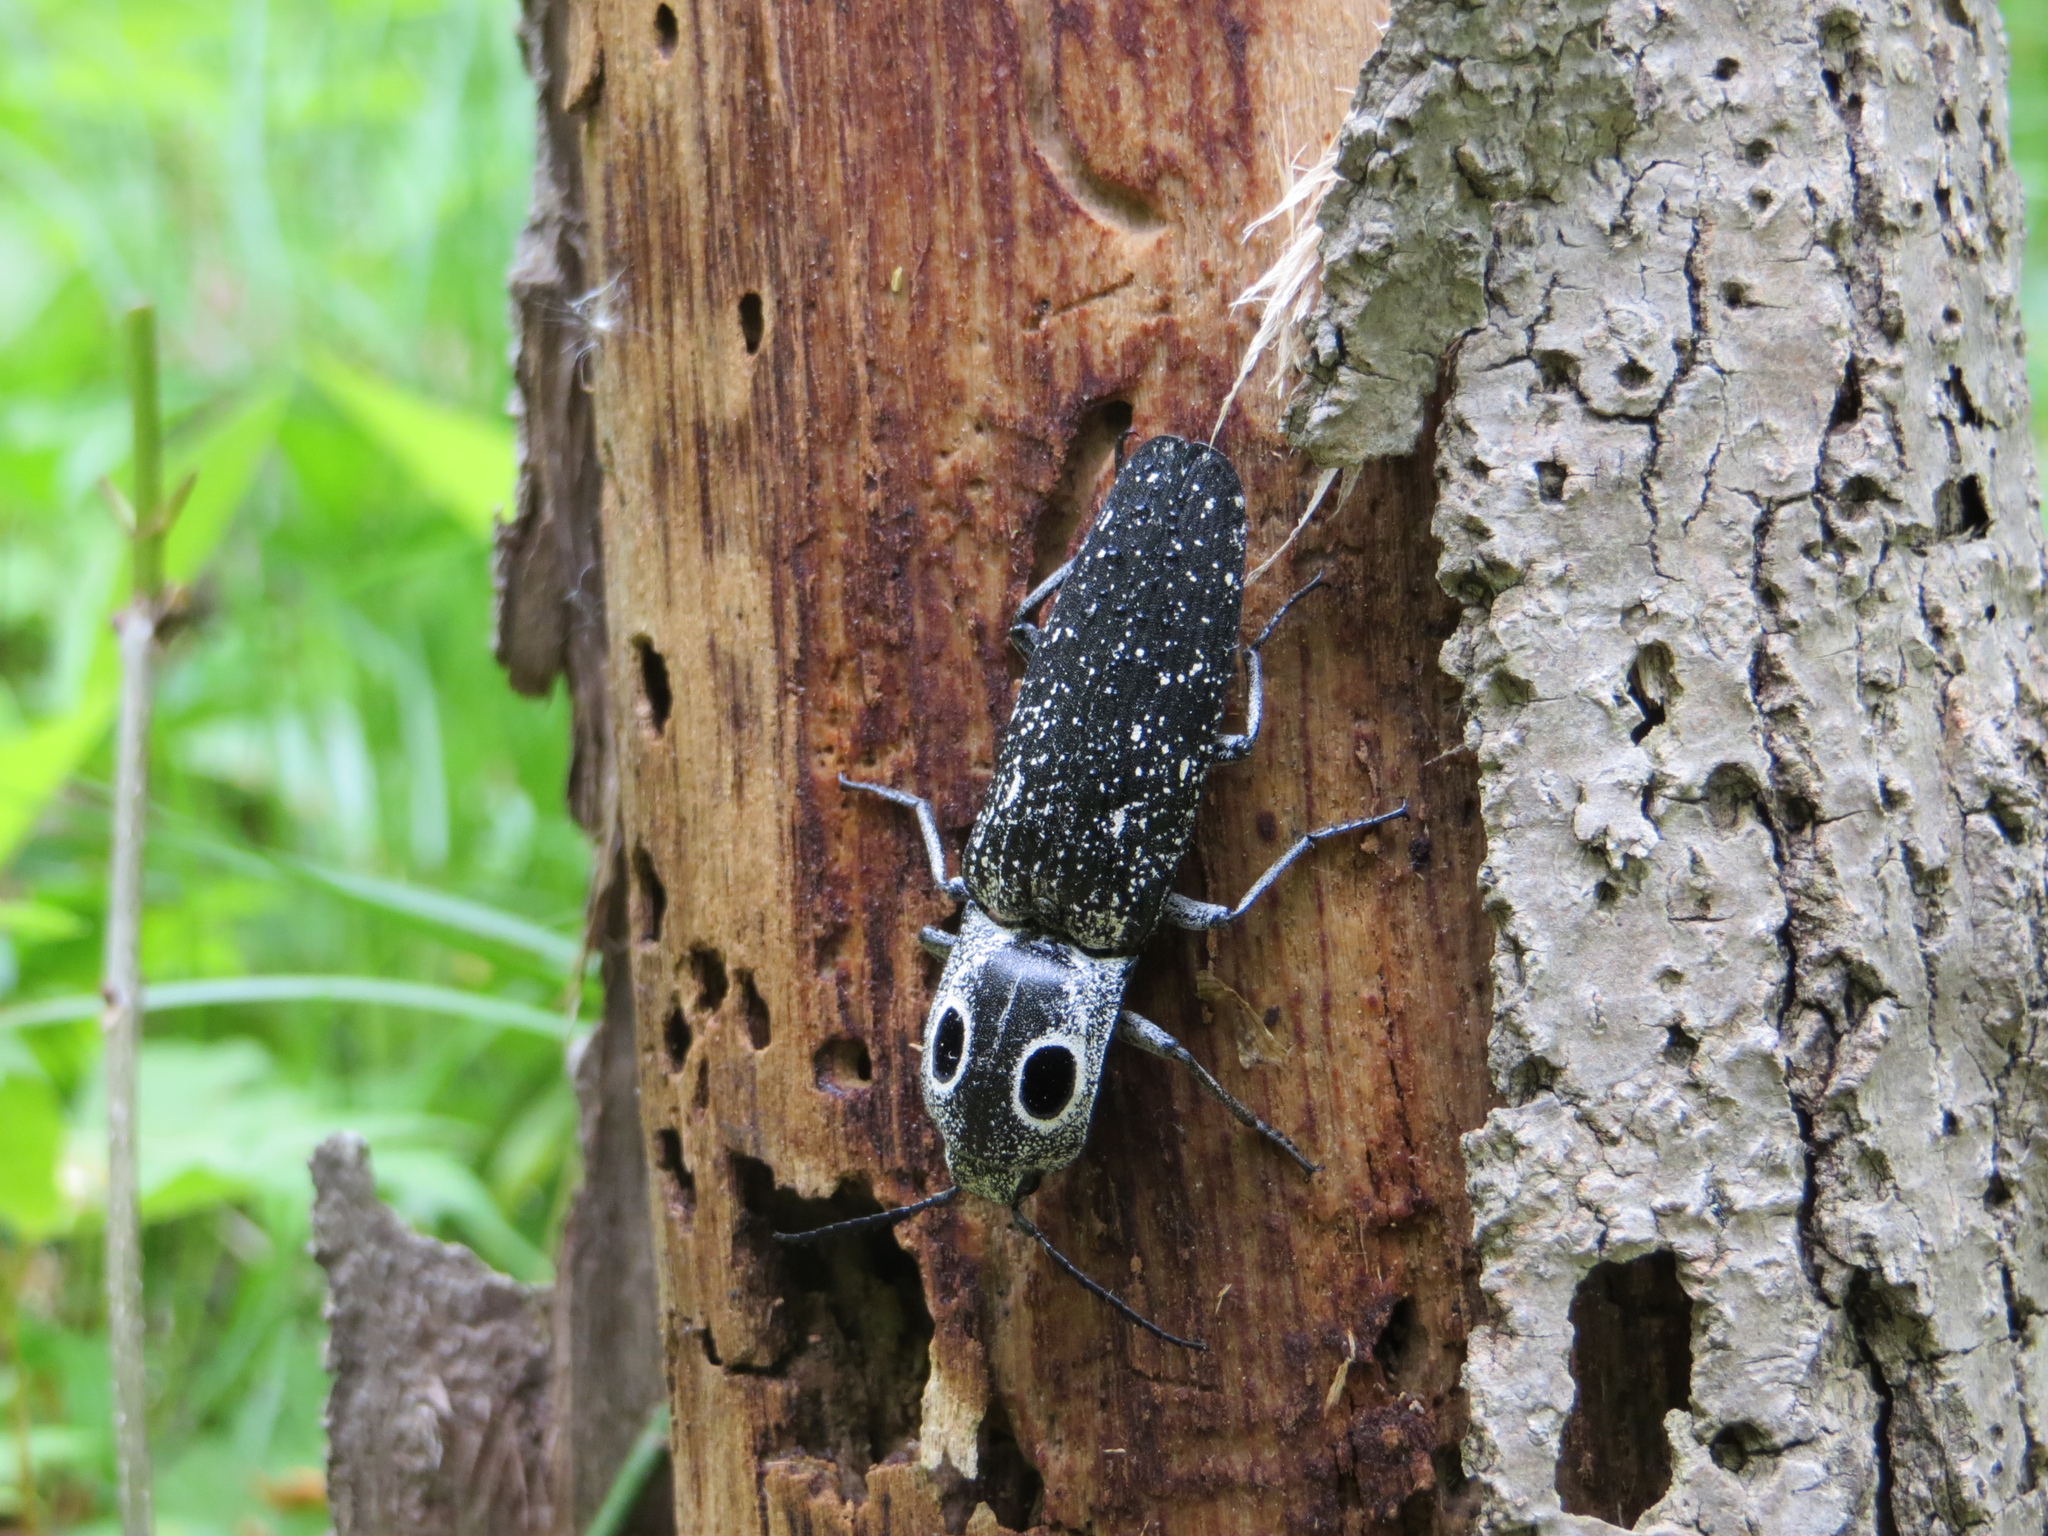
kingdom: Animalia
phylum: Arthropoda
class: Insecta
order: Coleoptera
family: Elateridae
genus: Alaus
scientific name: Alaus oculatus
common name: Eastern eyed click beetle
